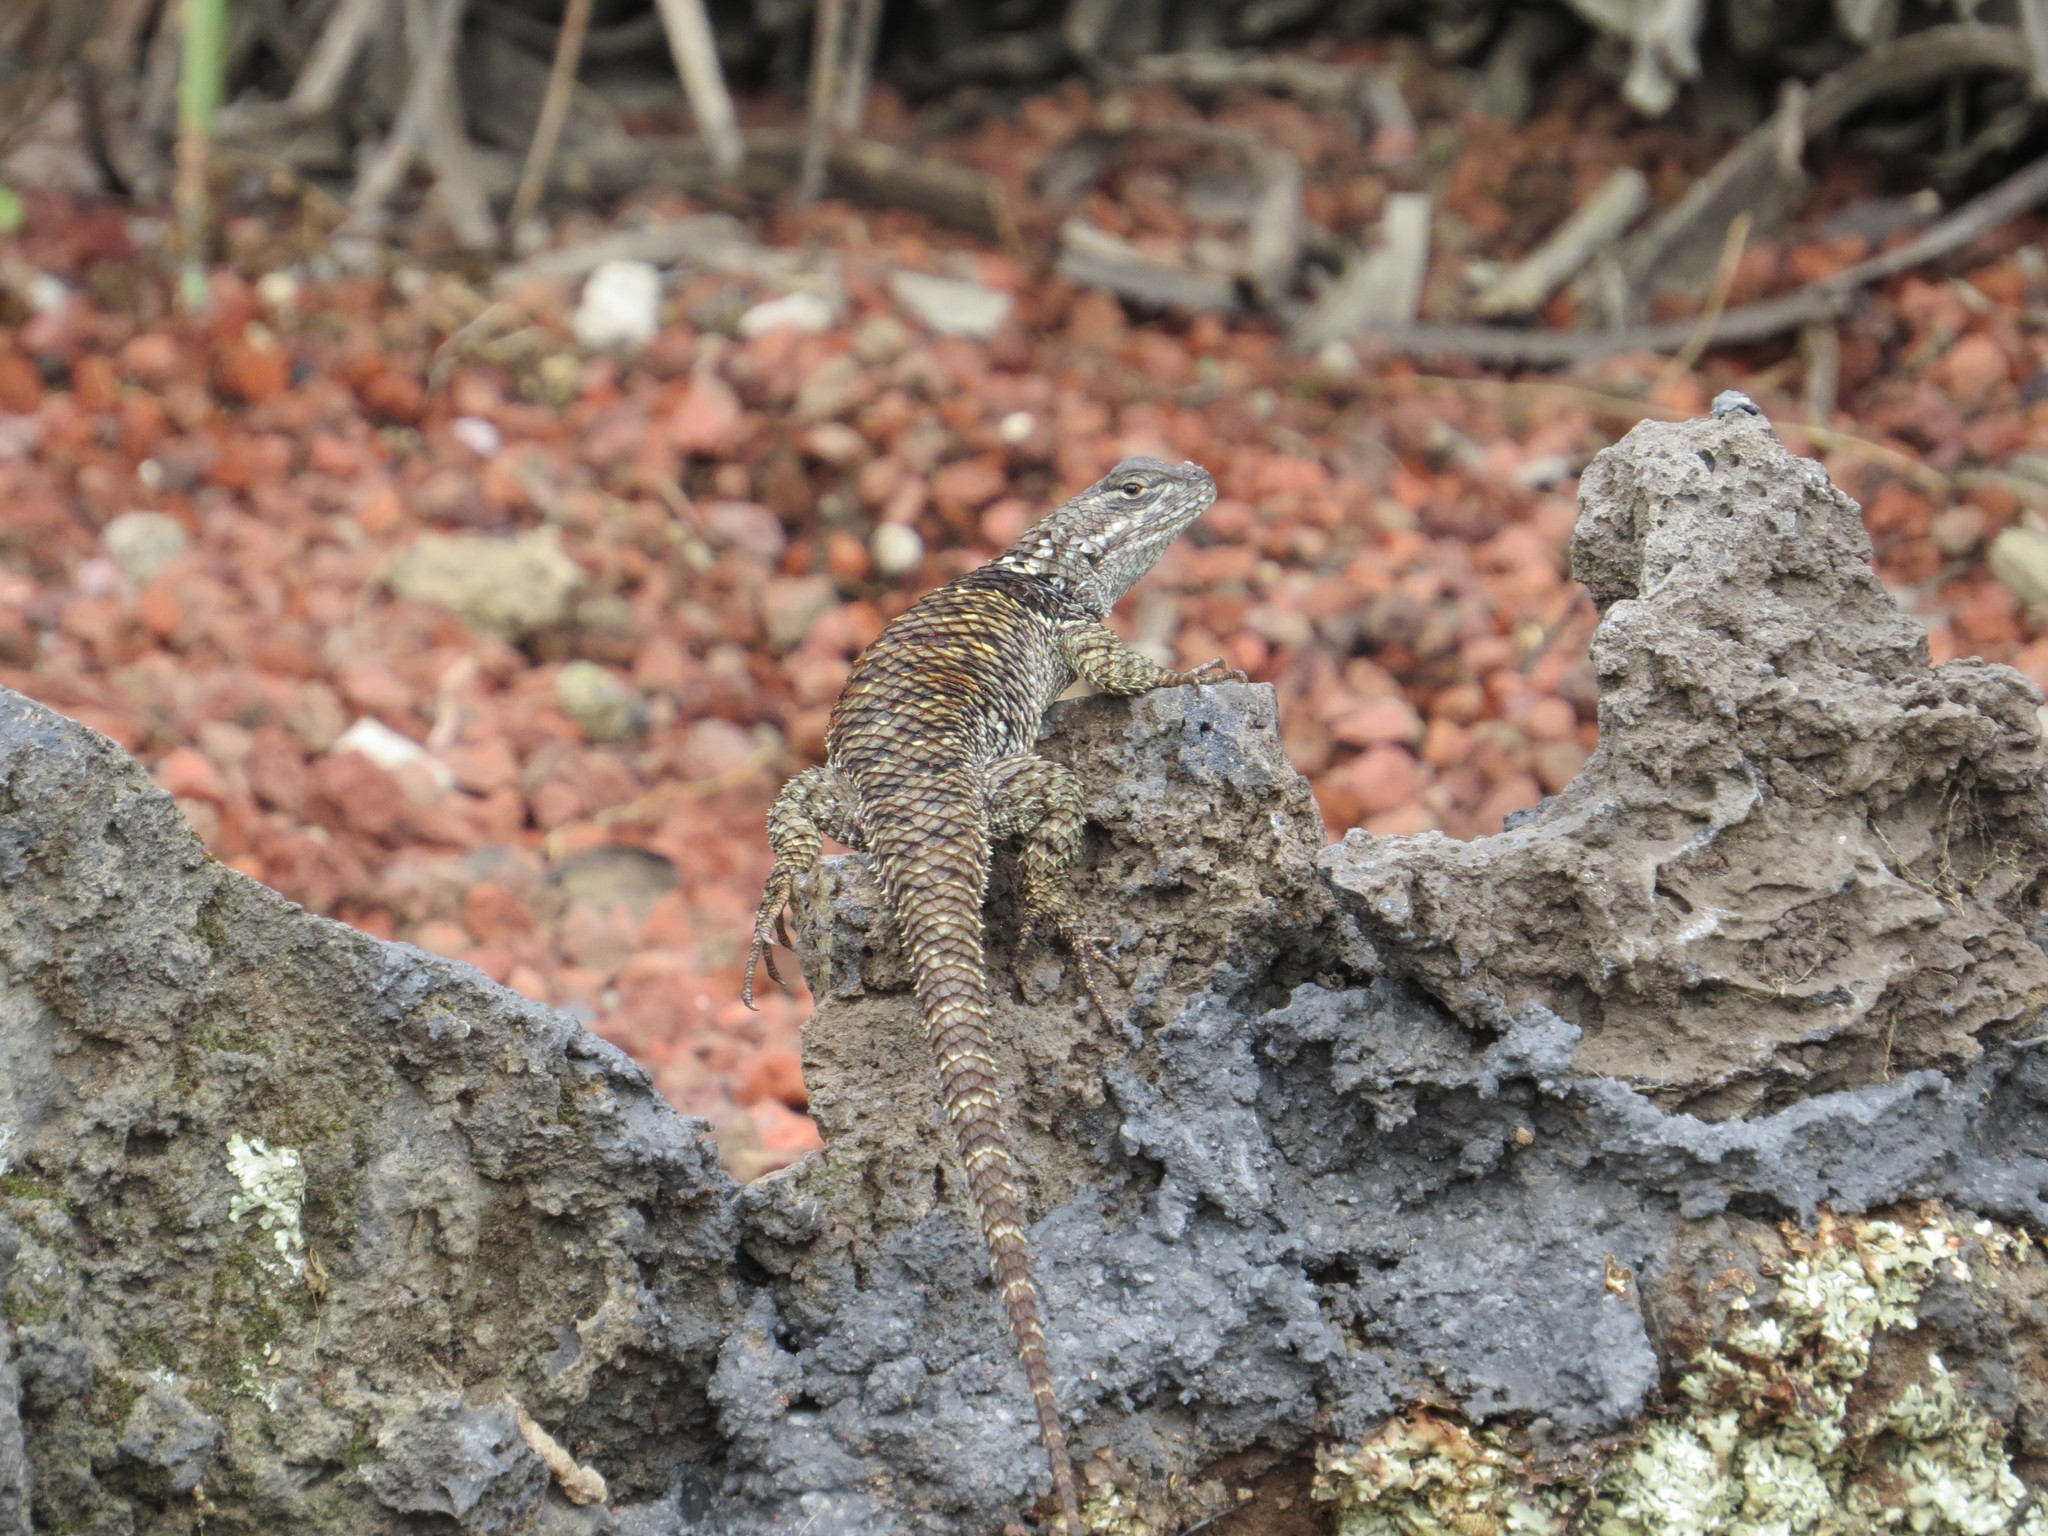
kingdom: Animalia
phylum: Chordata
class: Squamata
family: Phrynosomatidae
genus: Sceloporus
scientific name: Sceloporus torquatus
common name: Central plateau torquate lizard [melanogaster]
